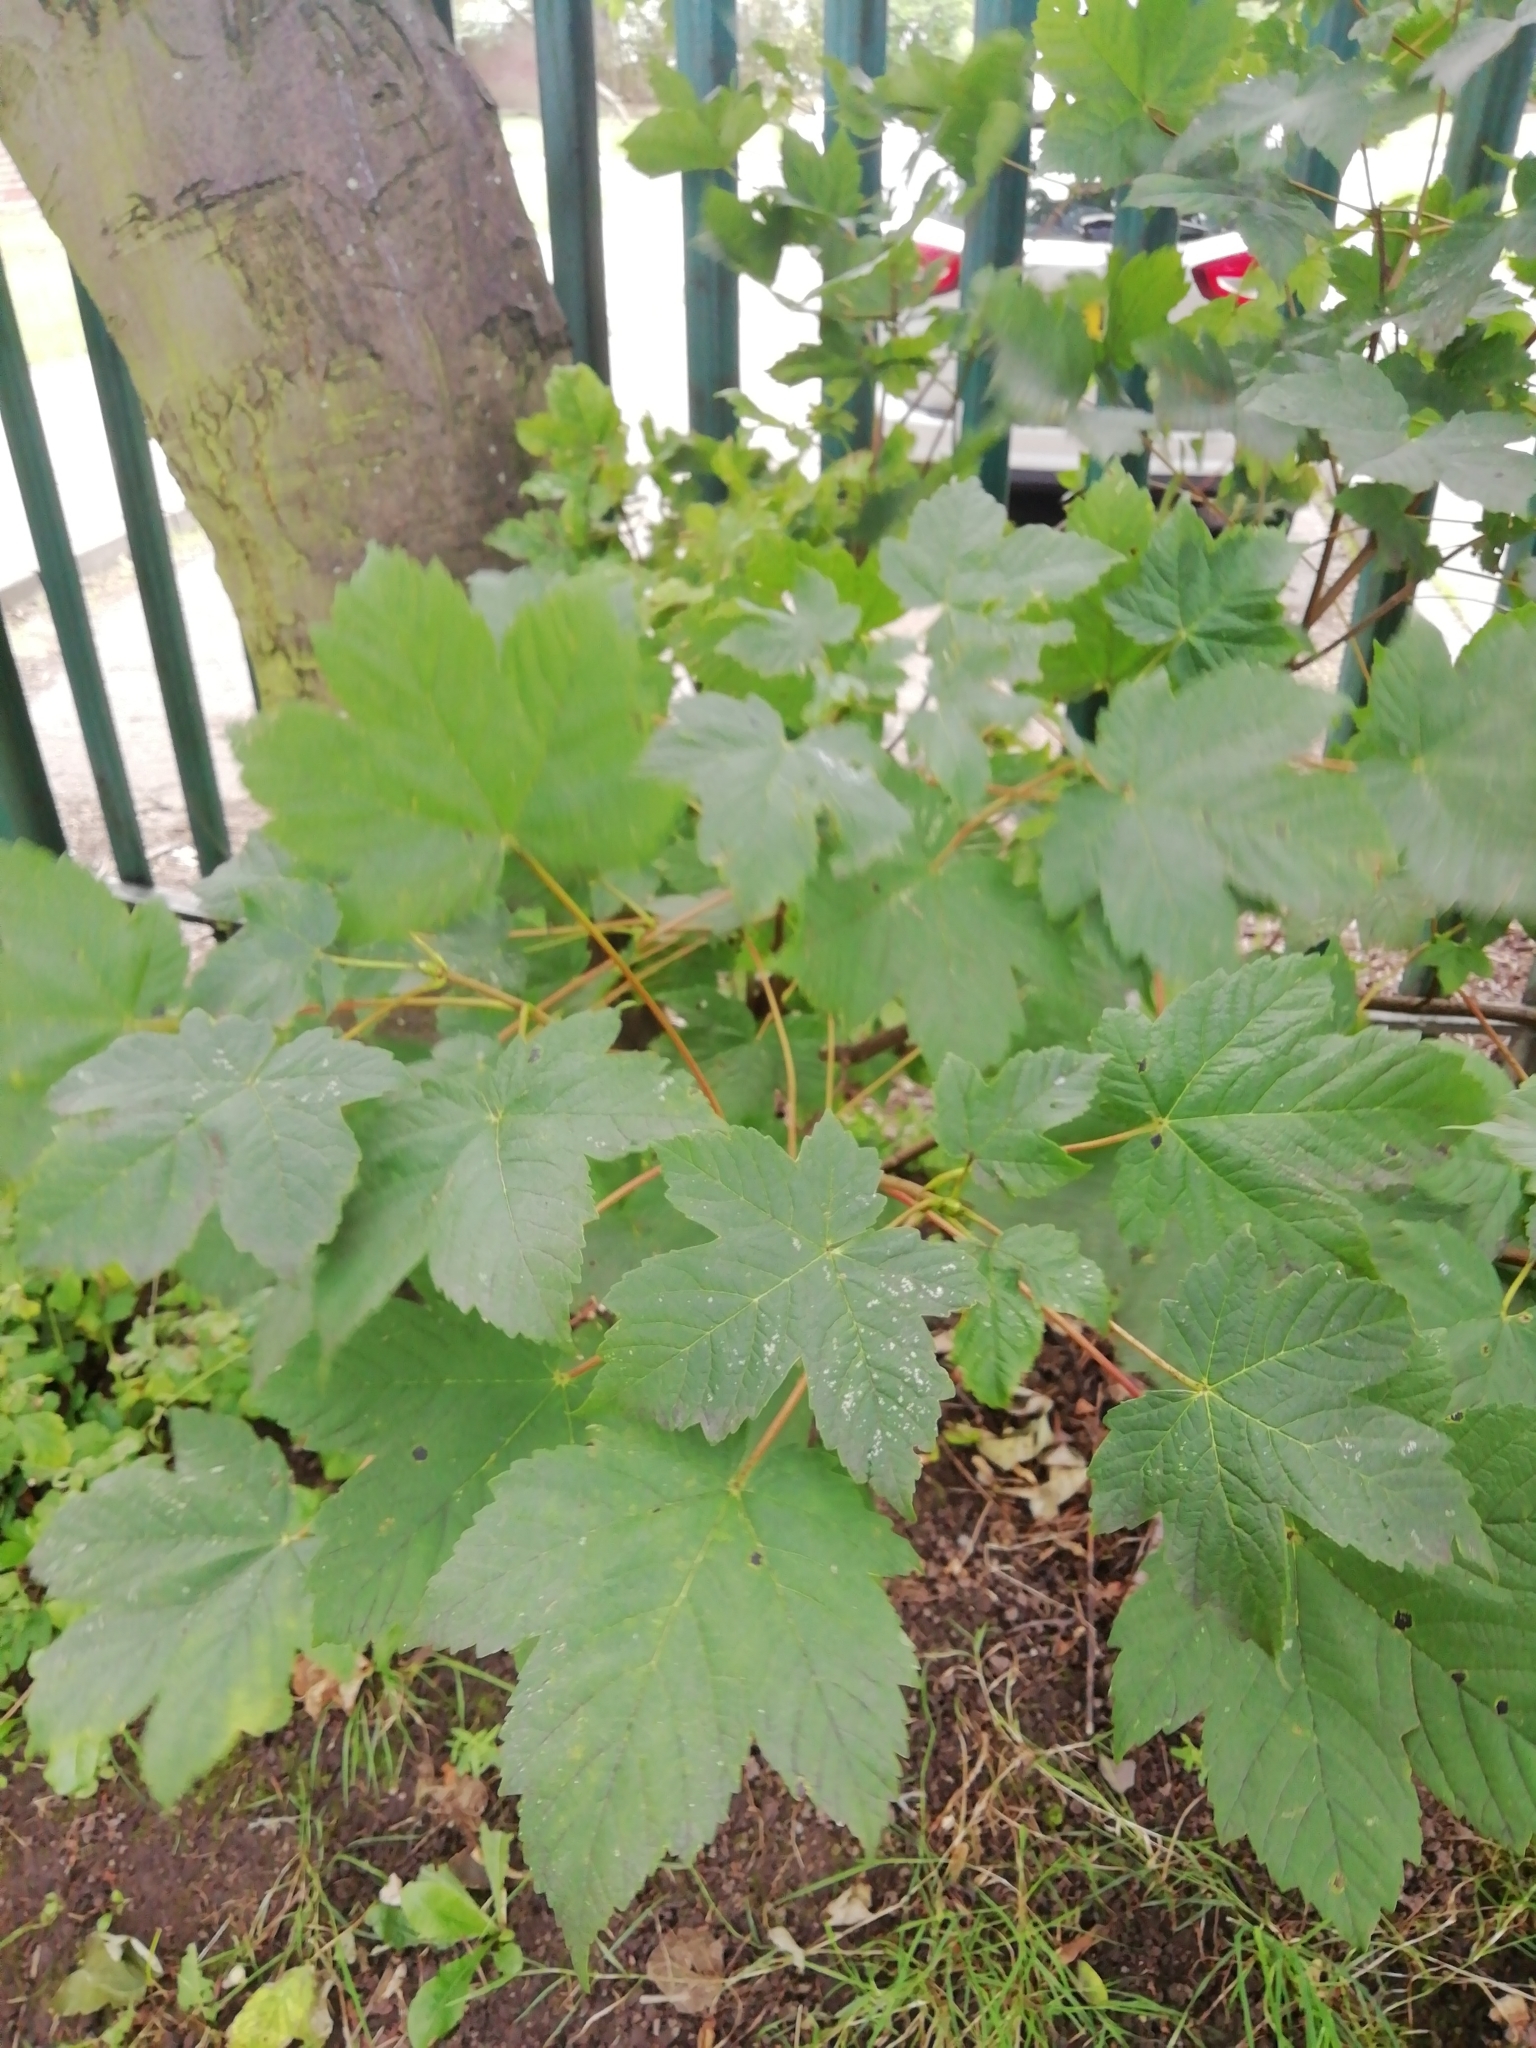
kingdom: Plantae
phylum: Tracheophyta
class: Magnoliopsida
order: Sapindales
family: Sapindaceae
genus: Acer
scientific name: Acer pseudoplatanus
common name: Sycamore
